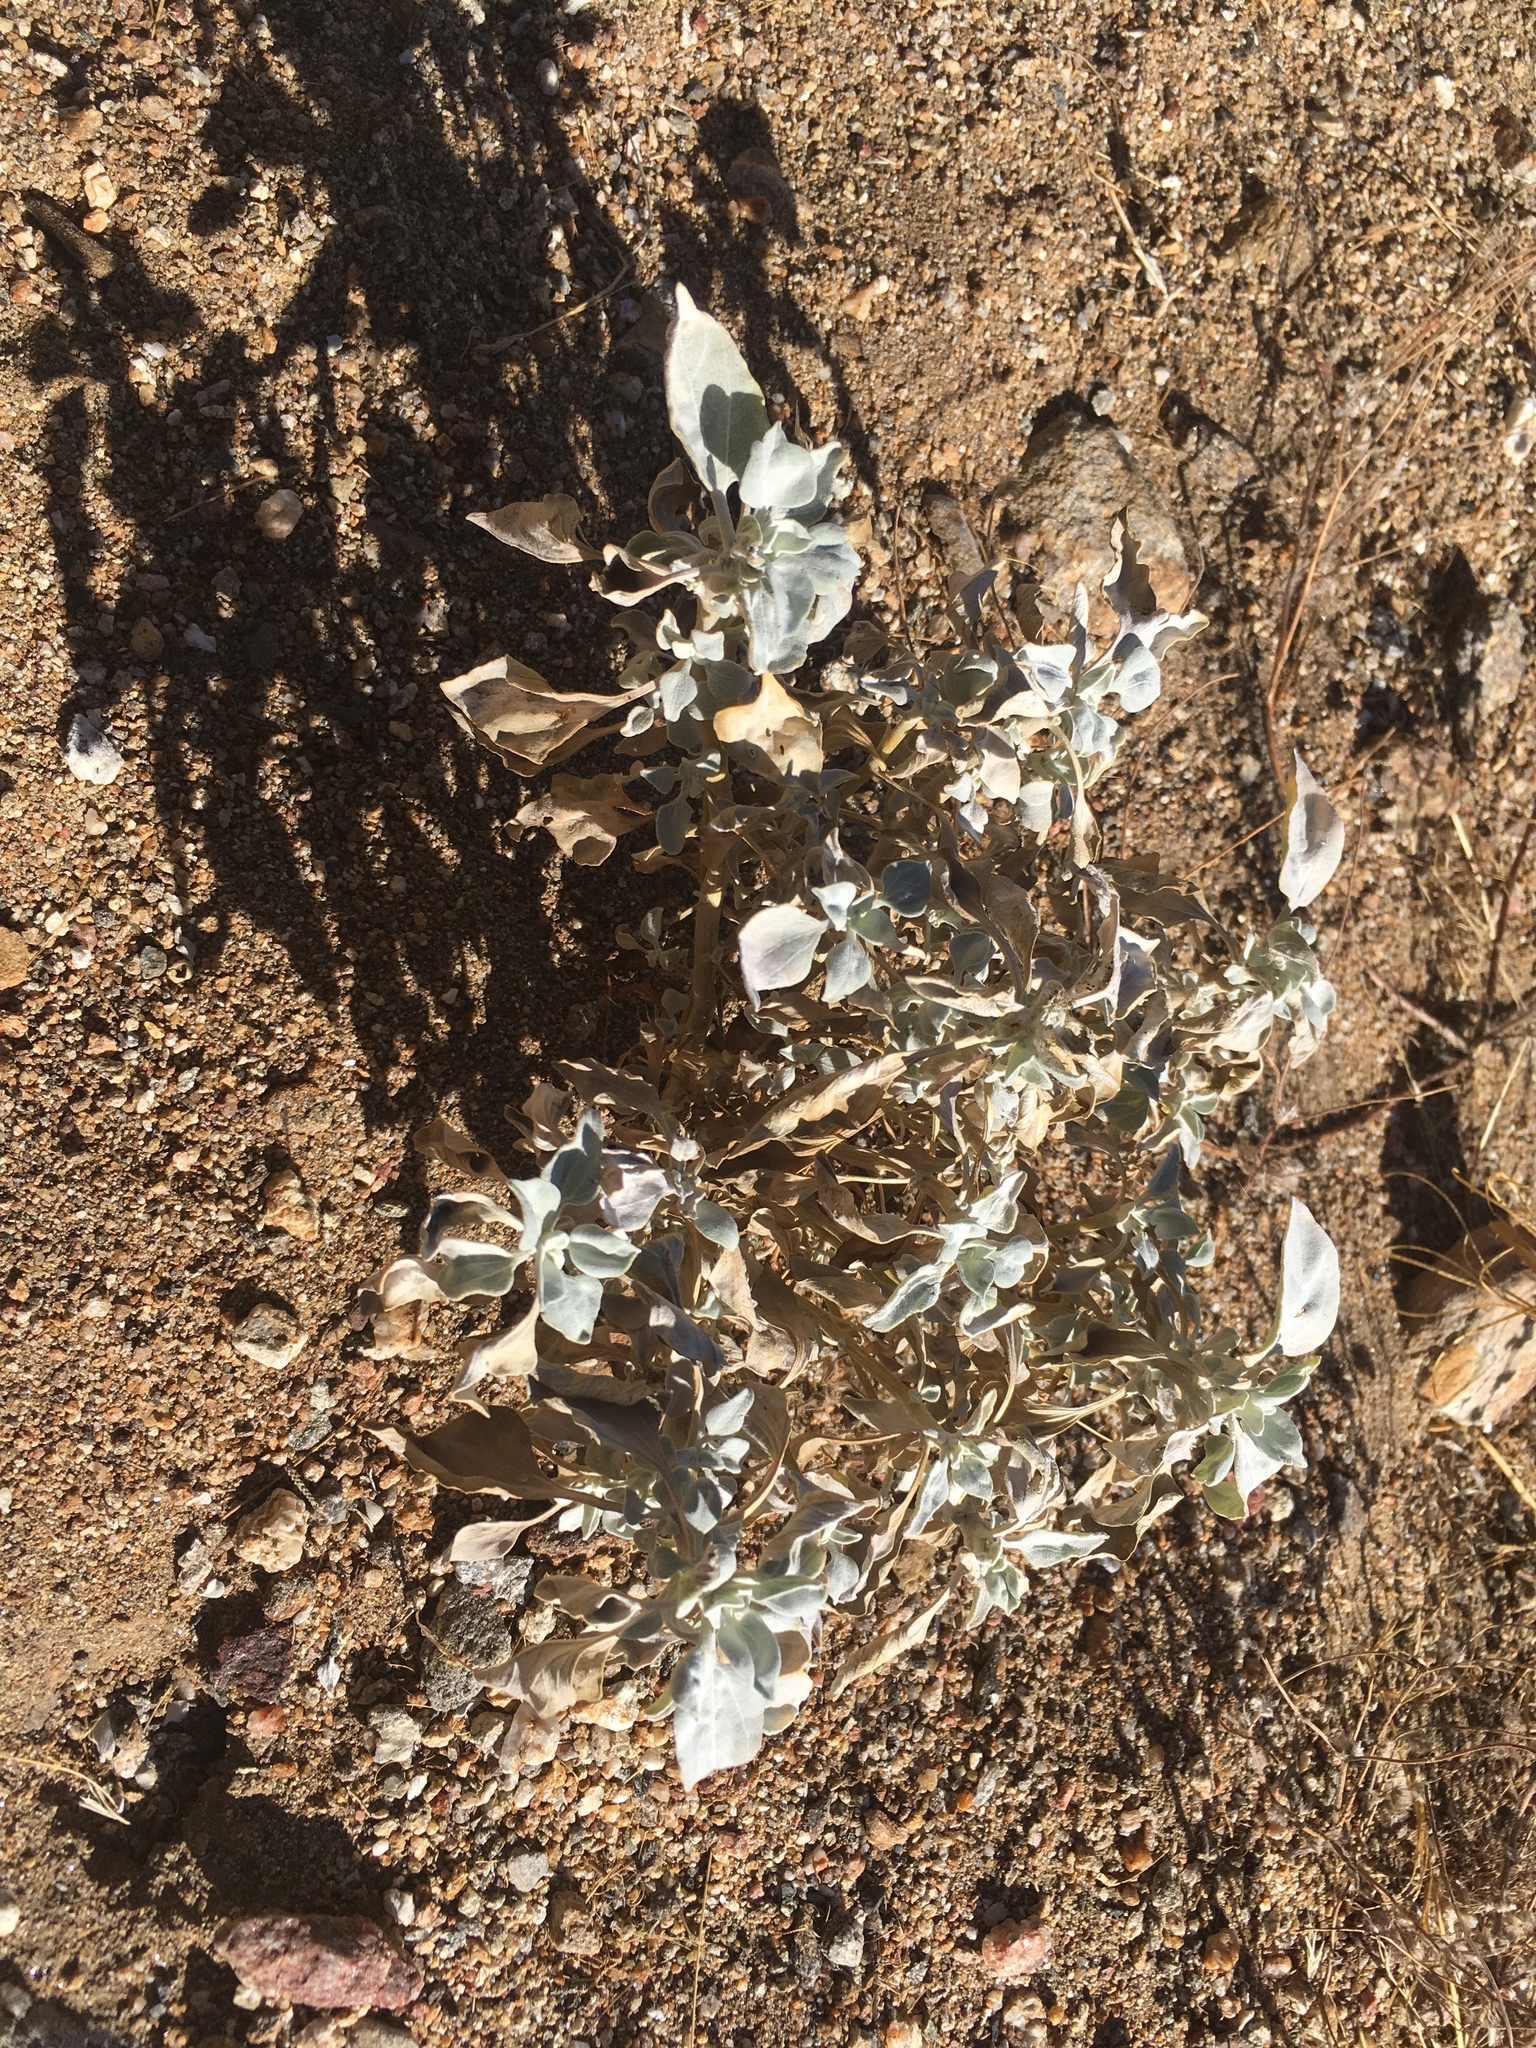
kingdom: Plantae
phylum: Tracheophyta
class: Magnoliopsida
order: Asterales
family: Asteraceae
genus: Encelia
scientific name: Encelia farinosa
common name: Brittlebush
